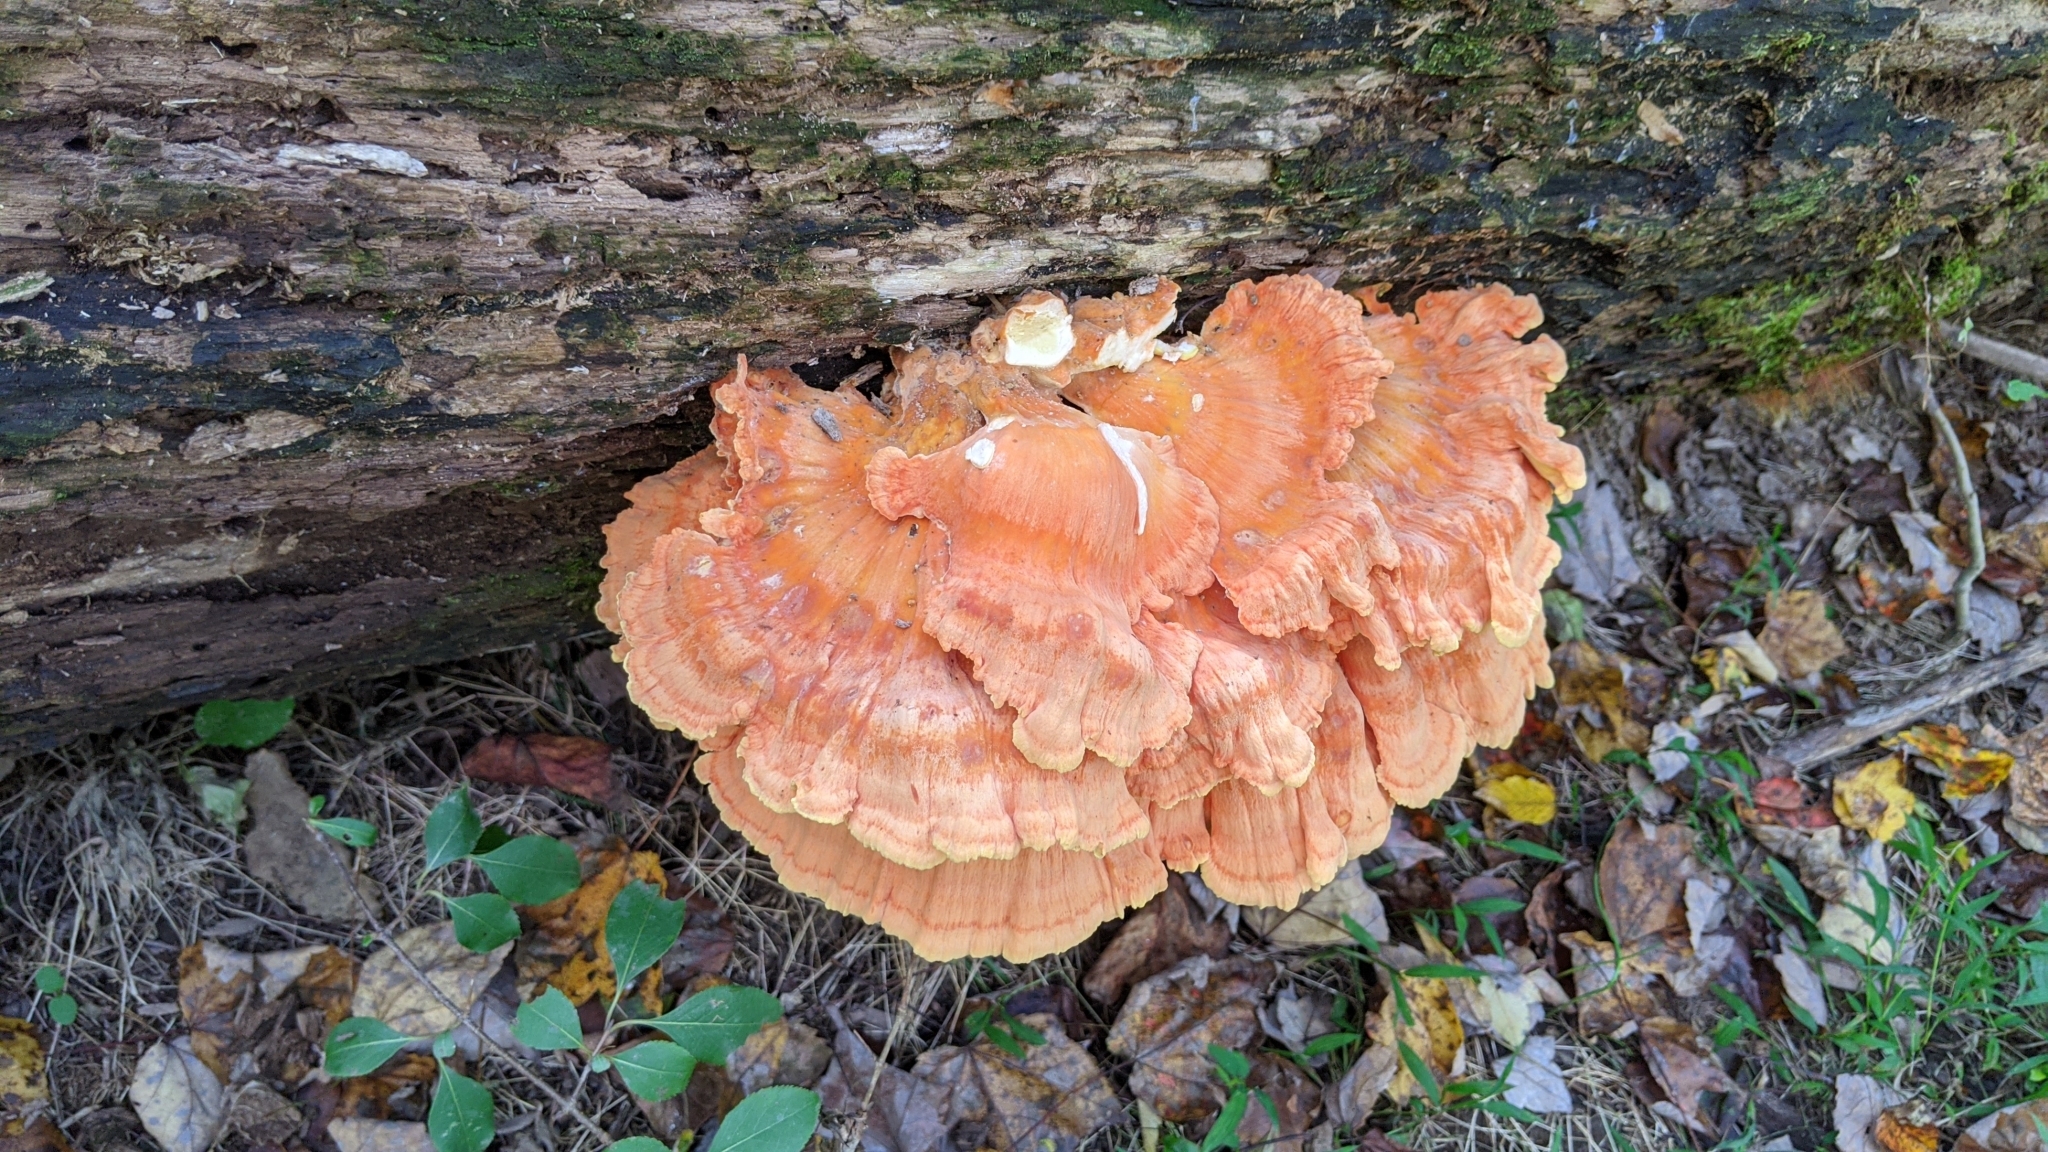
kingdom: Fungi
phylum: Basidiomycota
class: Agaricomycetes
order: Polyporales
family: Laetiporaceae
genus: Laetiporus
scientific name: Laetiporus sulphureus
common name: Chicken of the woods
